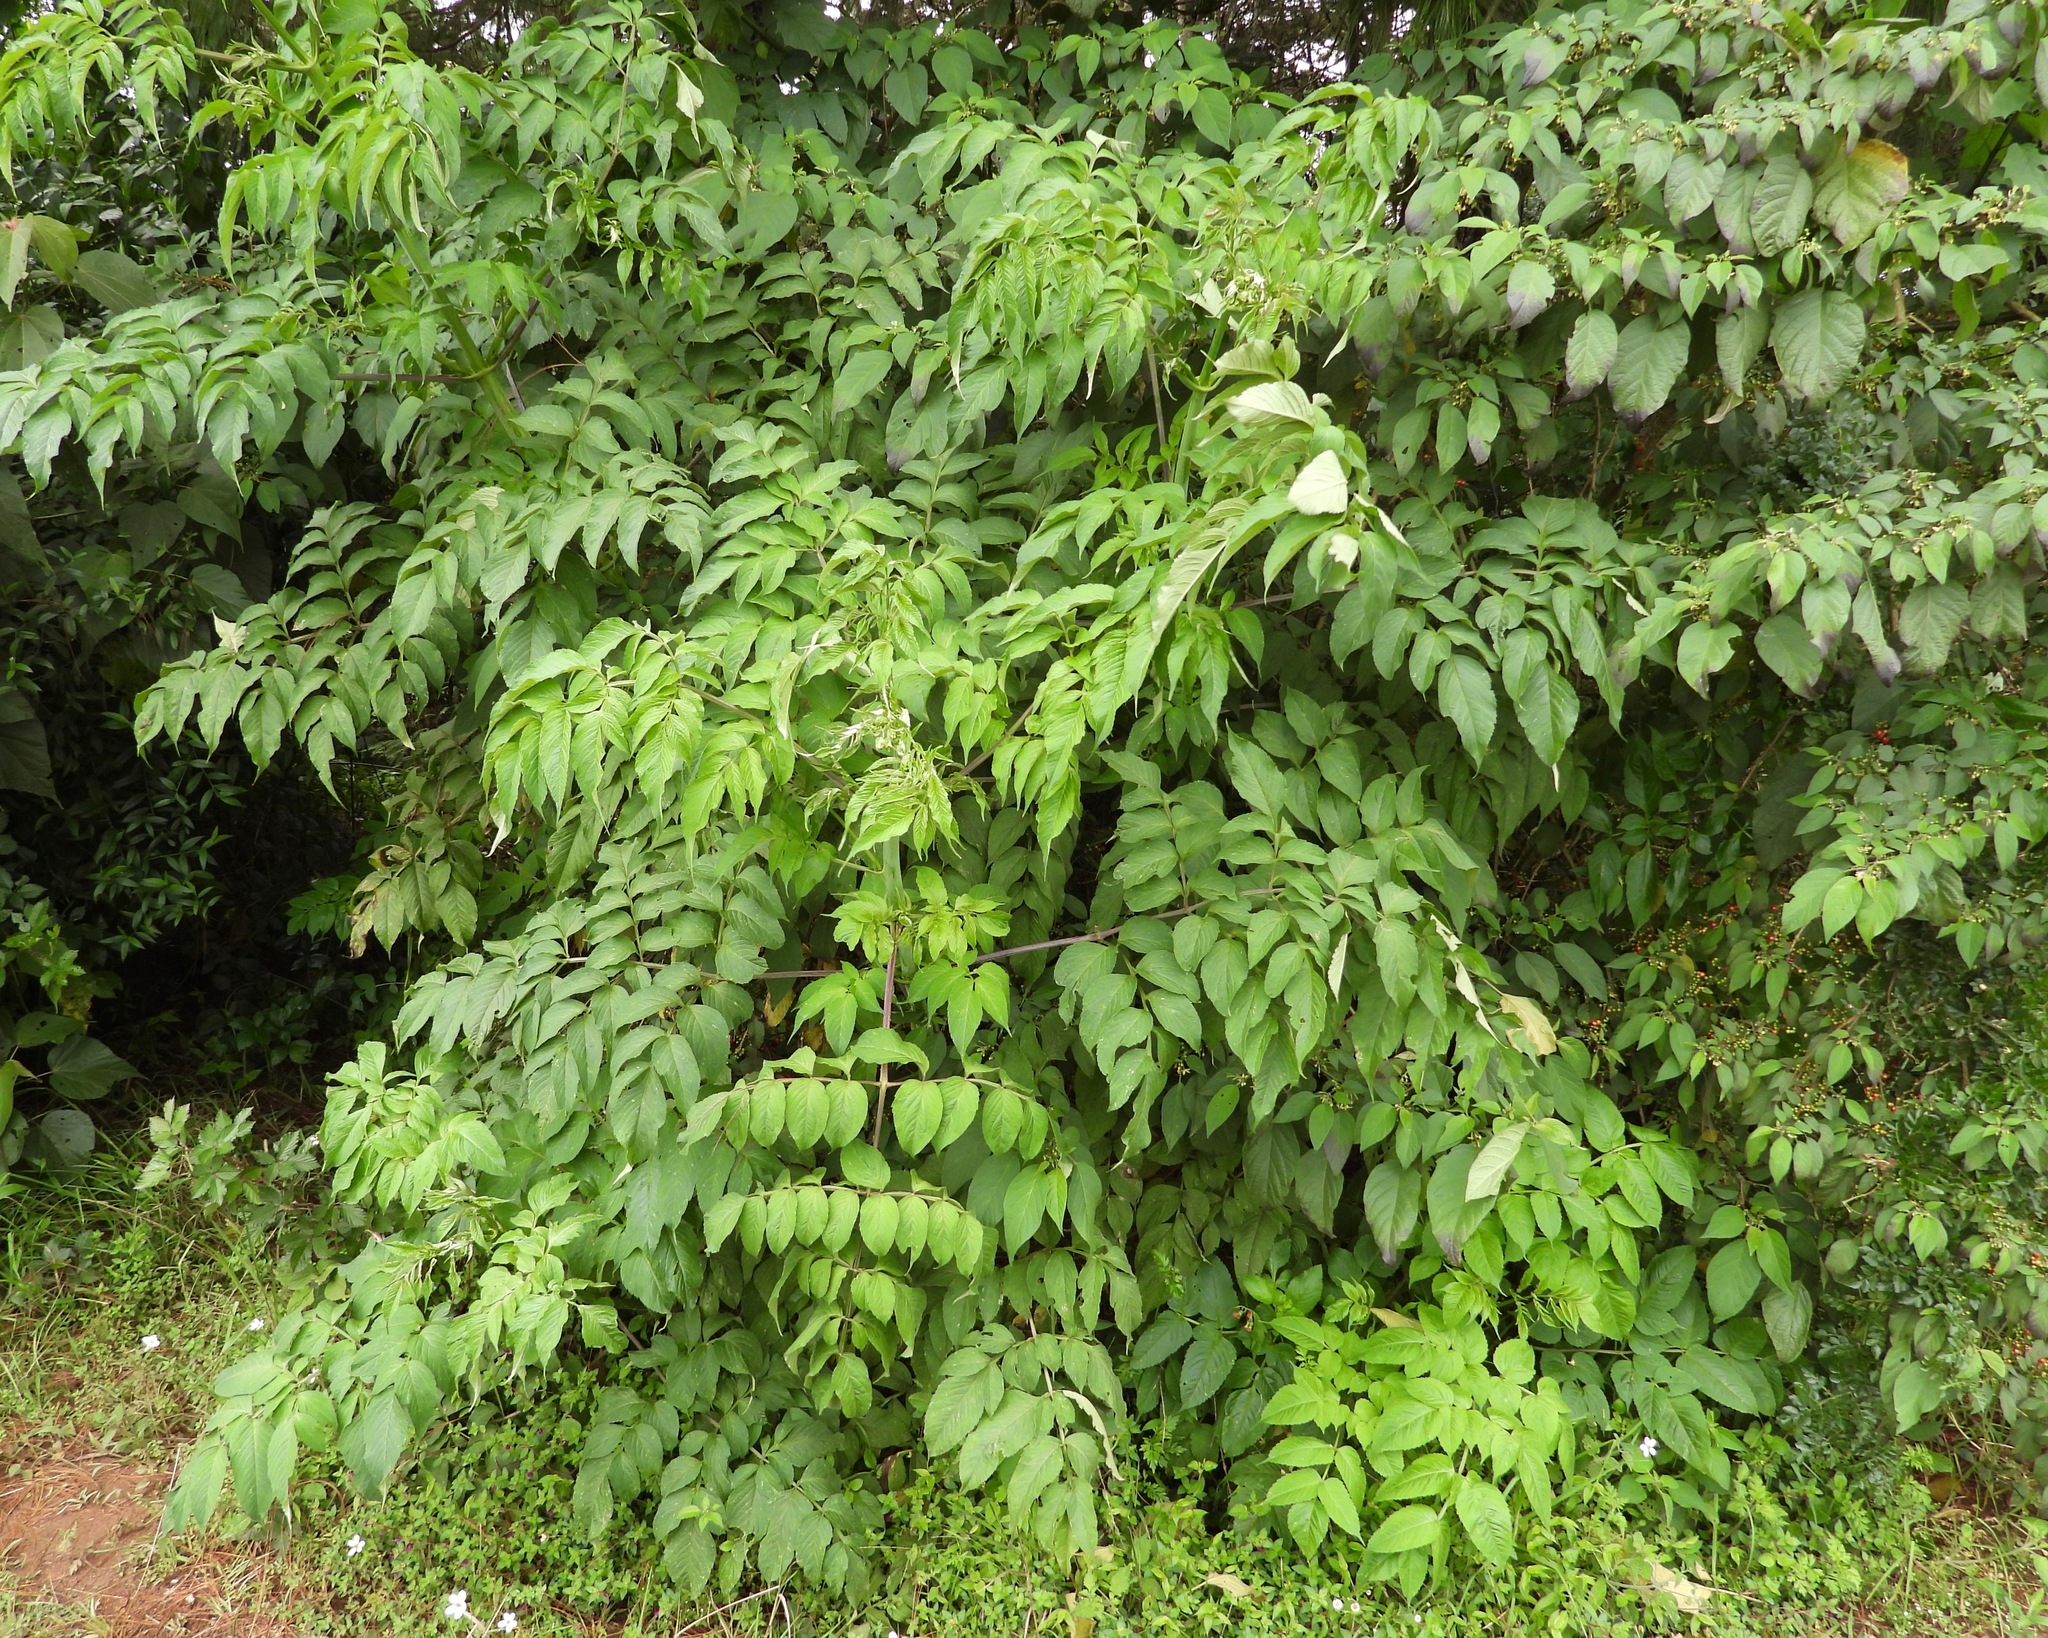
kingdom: Plantae
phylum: Tracheophyta
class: Magnoliopsida
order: Asterales
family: Asteraceae
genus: Dahlia
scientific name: Dahlia imperialis
